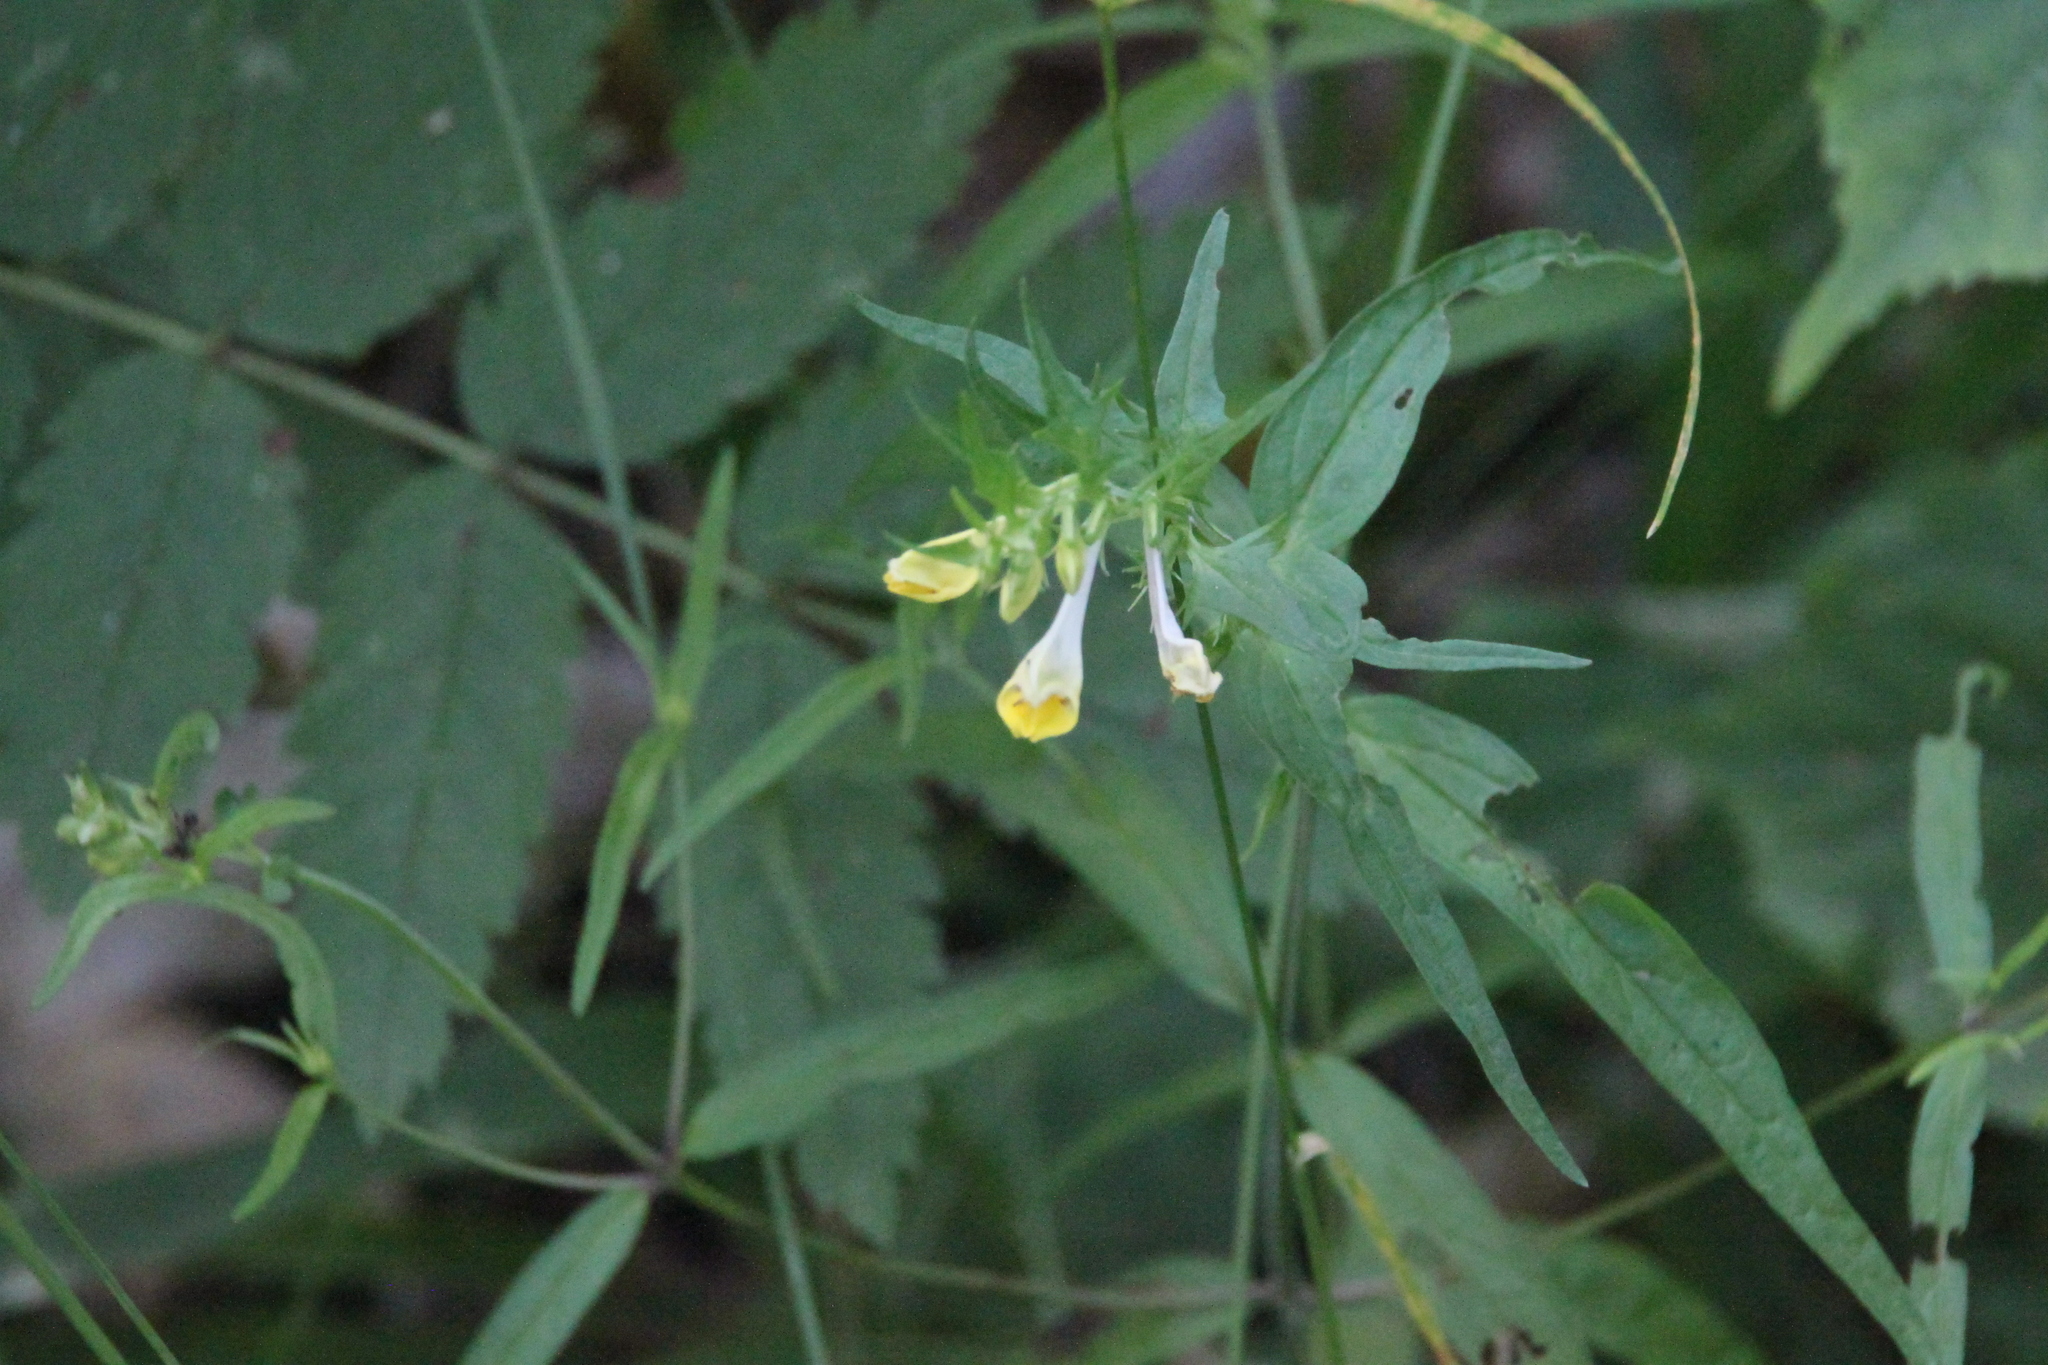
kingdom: Plantae
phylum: Tracheophyta
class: Magnoliopsida
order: Lamiales
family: Orobanchaceae
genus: Melampyrum
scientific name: Melampyrum pratense
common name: Common cow-wheat
